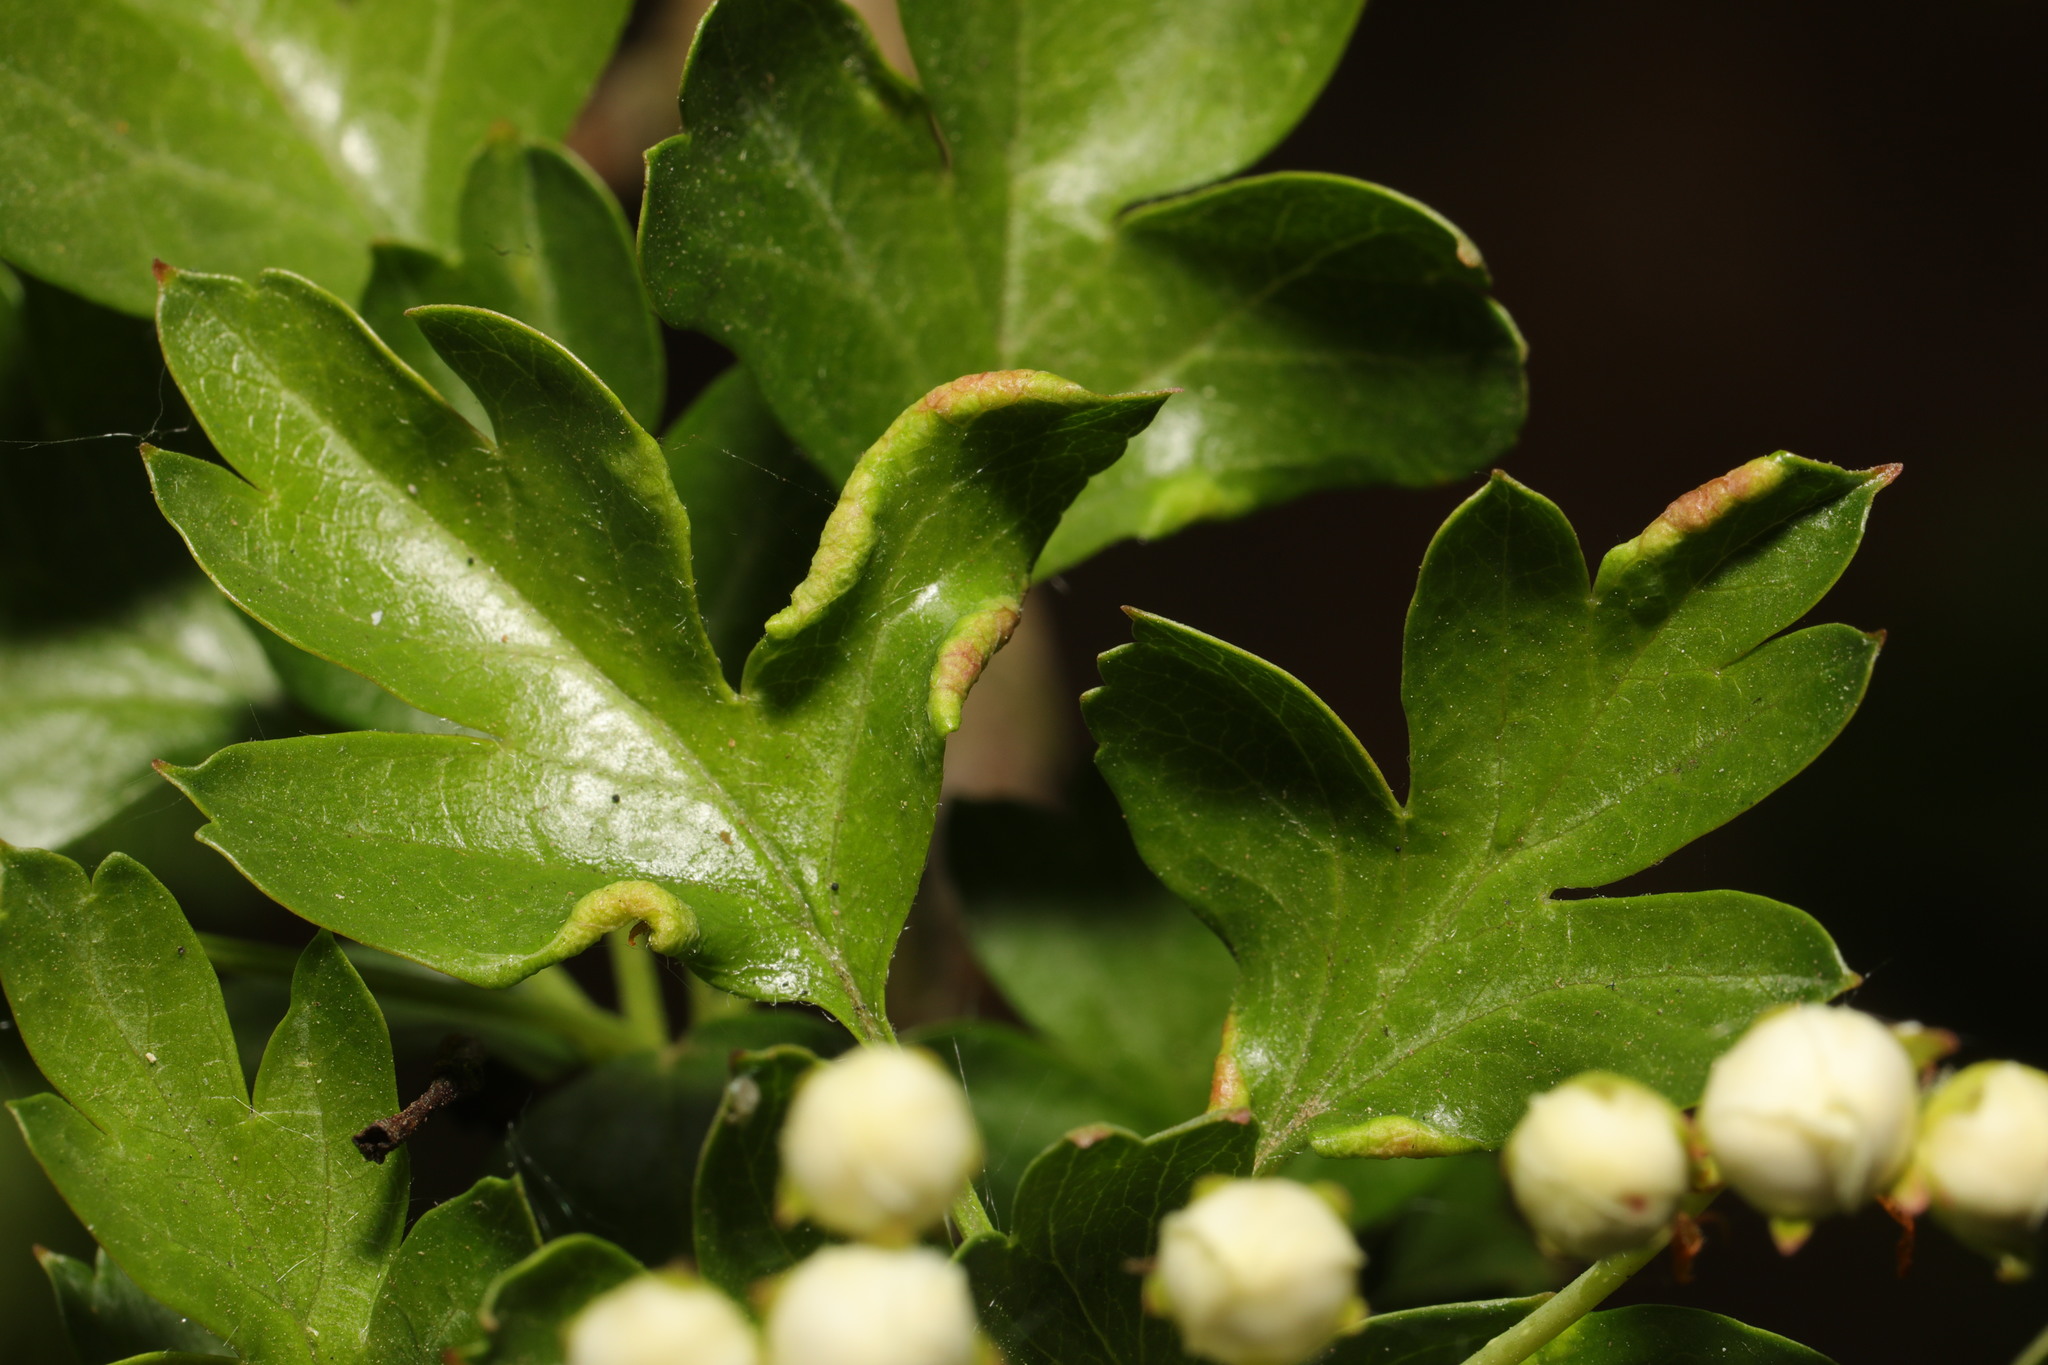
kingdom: Animalia
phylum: Arthropoda
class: Arachnida
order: Trombidiformes
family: Eriophyidae
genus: Phyllocoptes
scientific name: Phyllocoptes goniothorax
